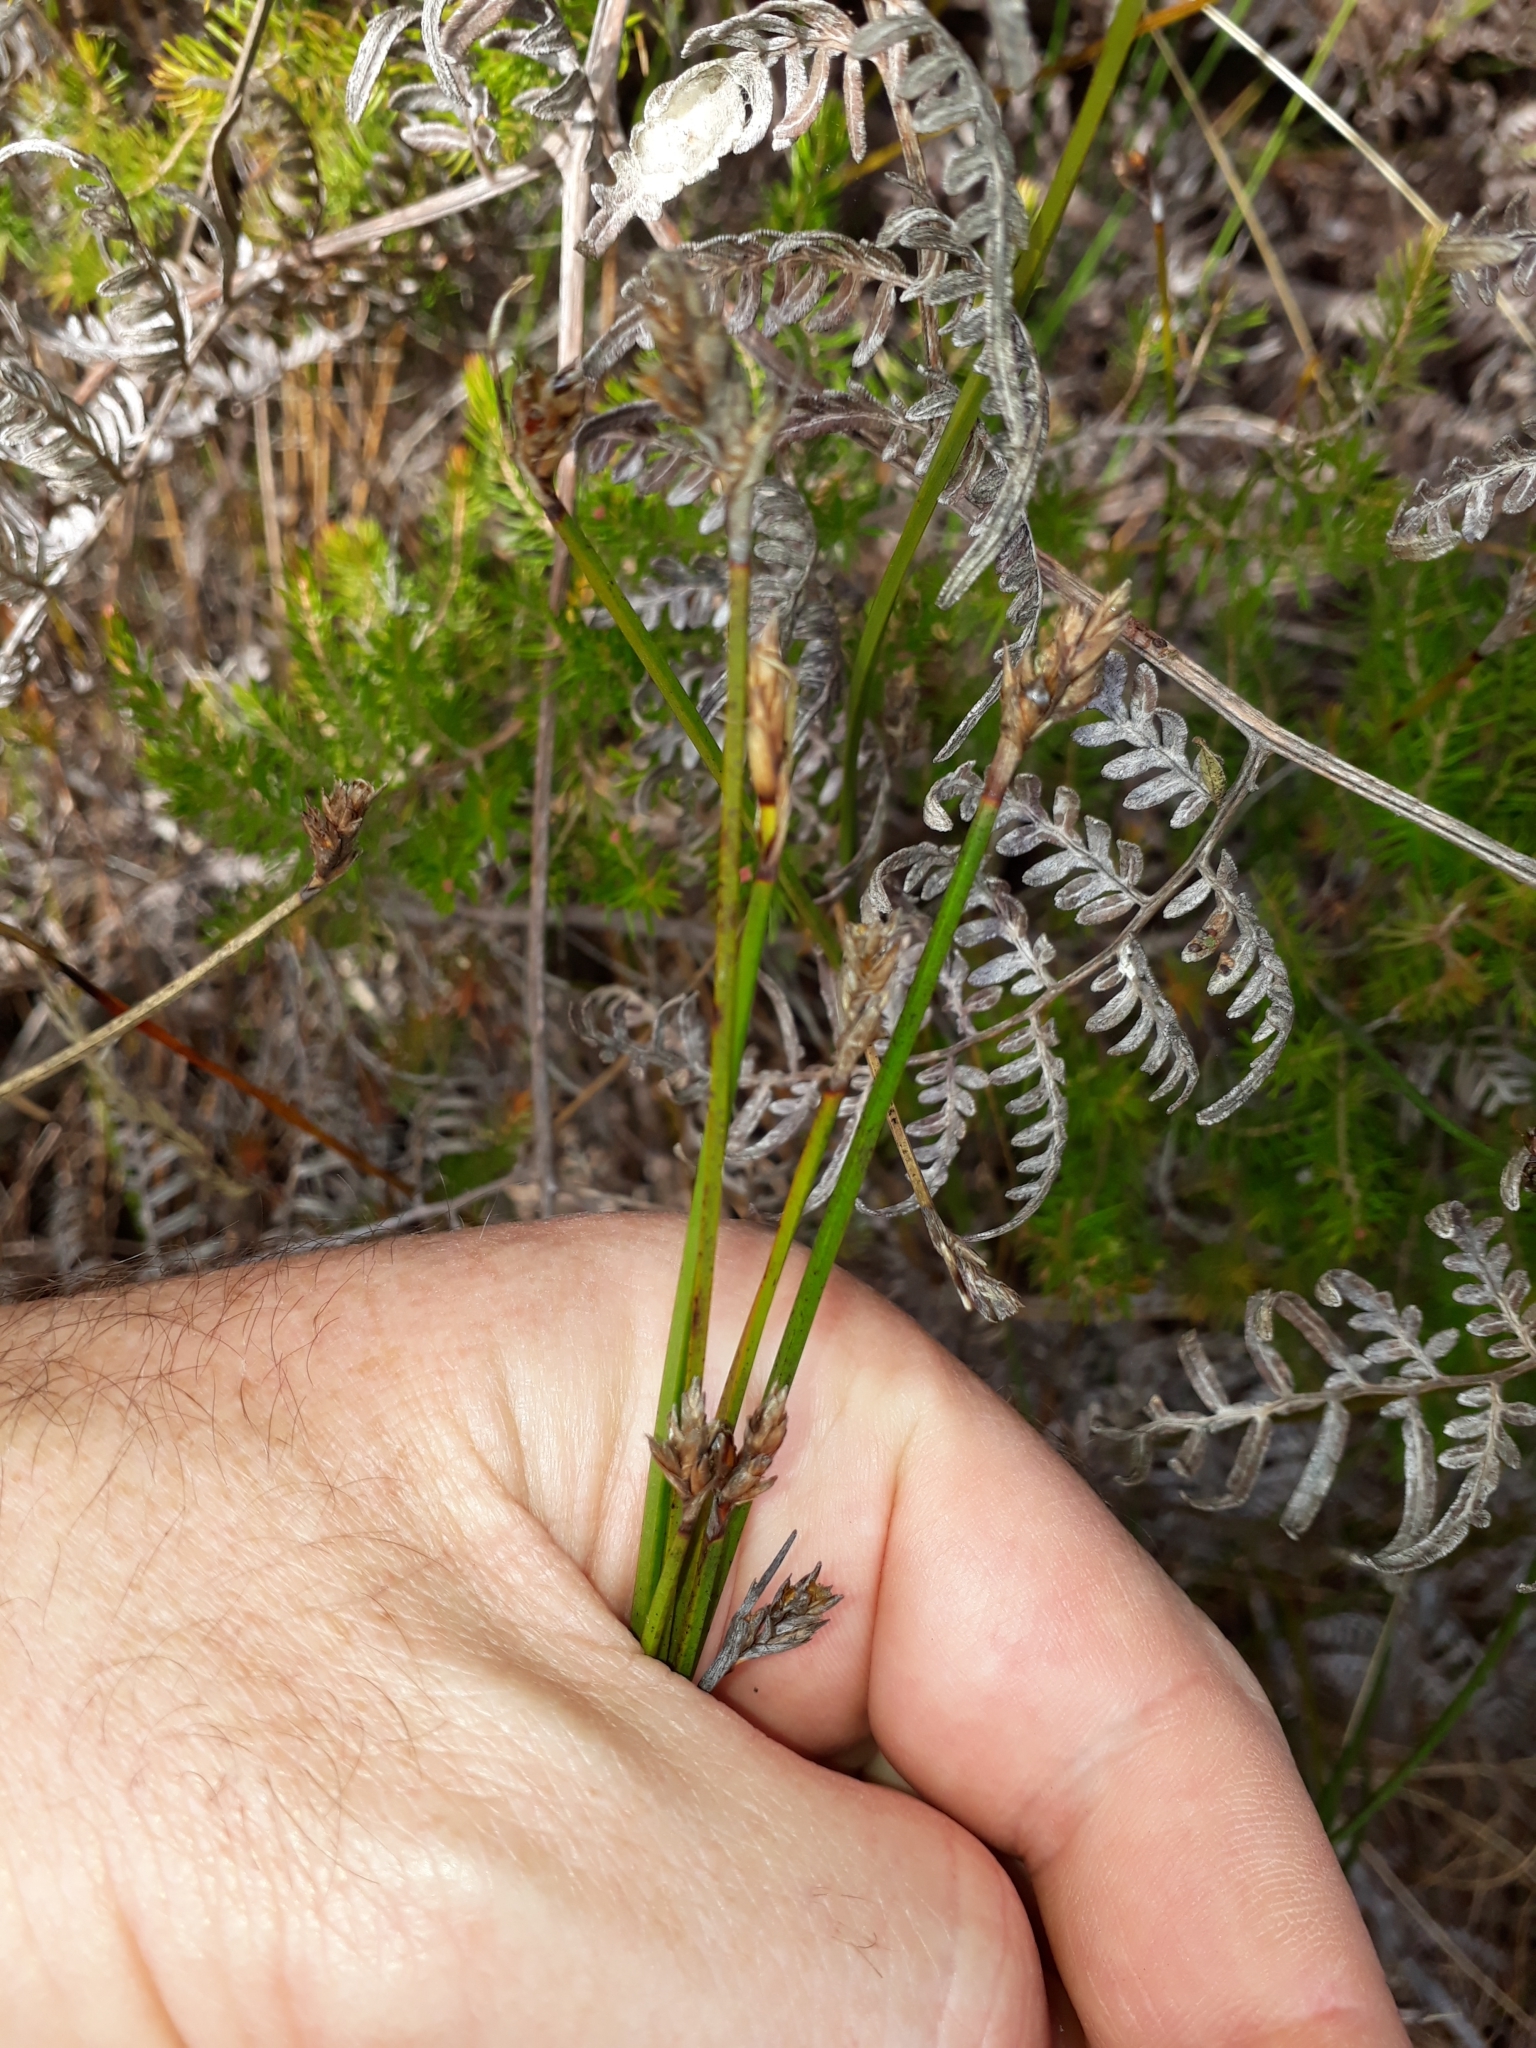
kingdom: Plantae
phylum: Tracheophyta
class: Liliopsida
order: Poales
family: Cyperaceae
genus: Lepidosperma
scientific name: Lepidosperma australe
